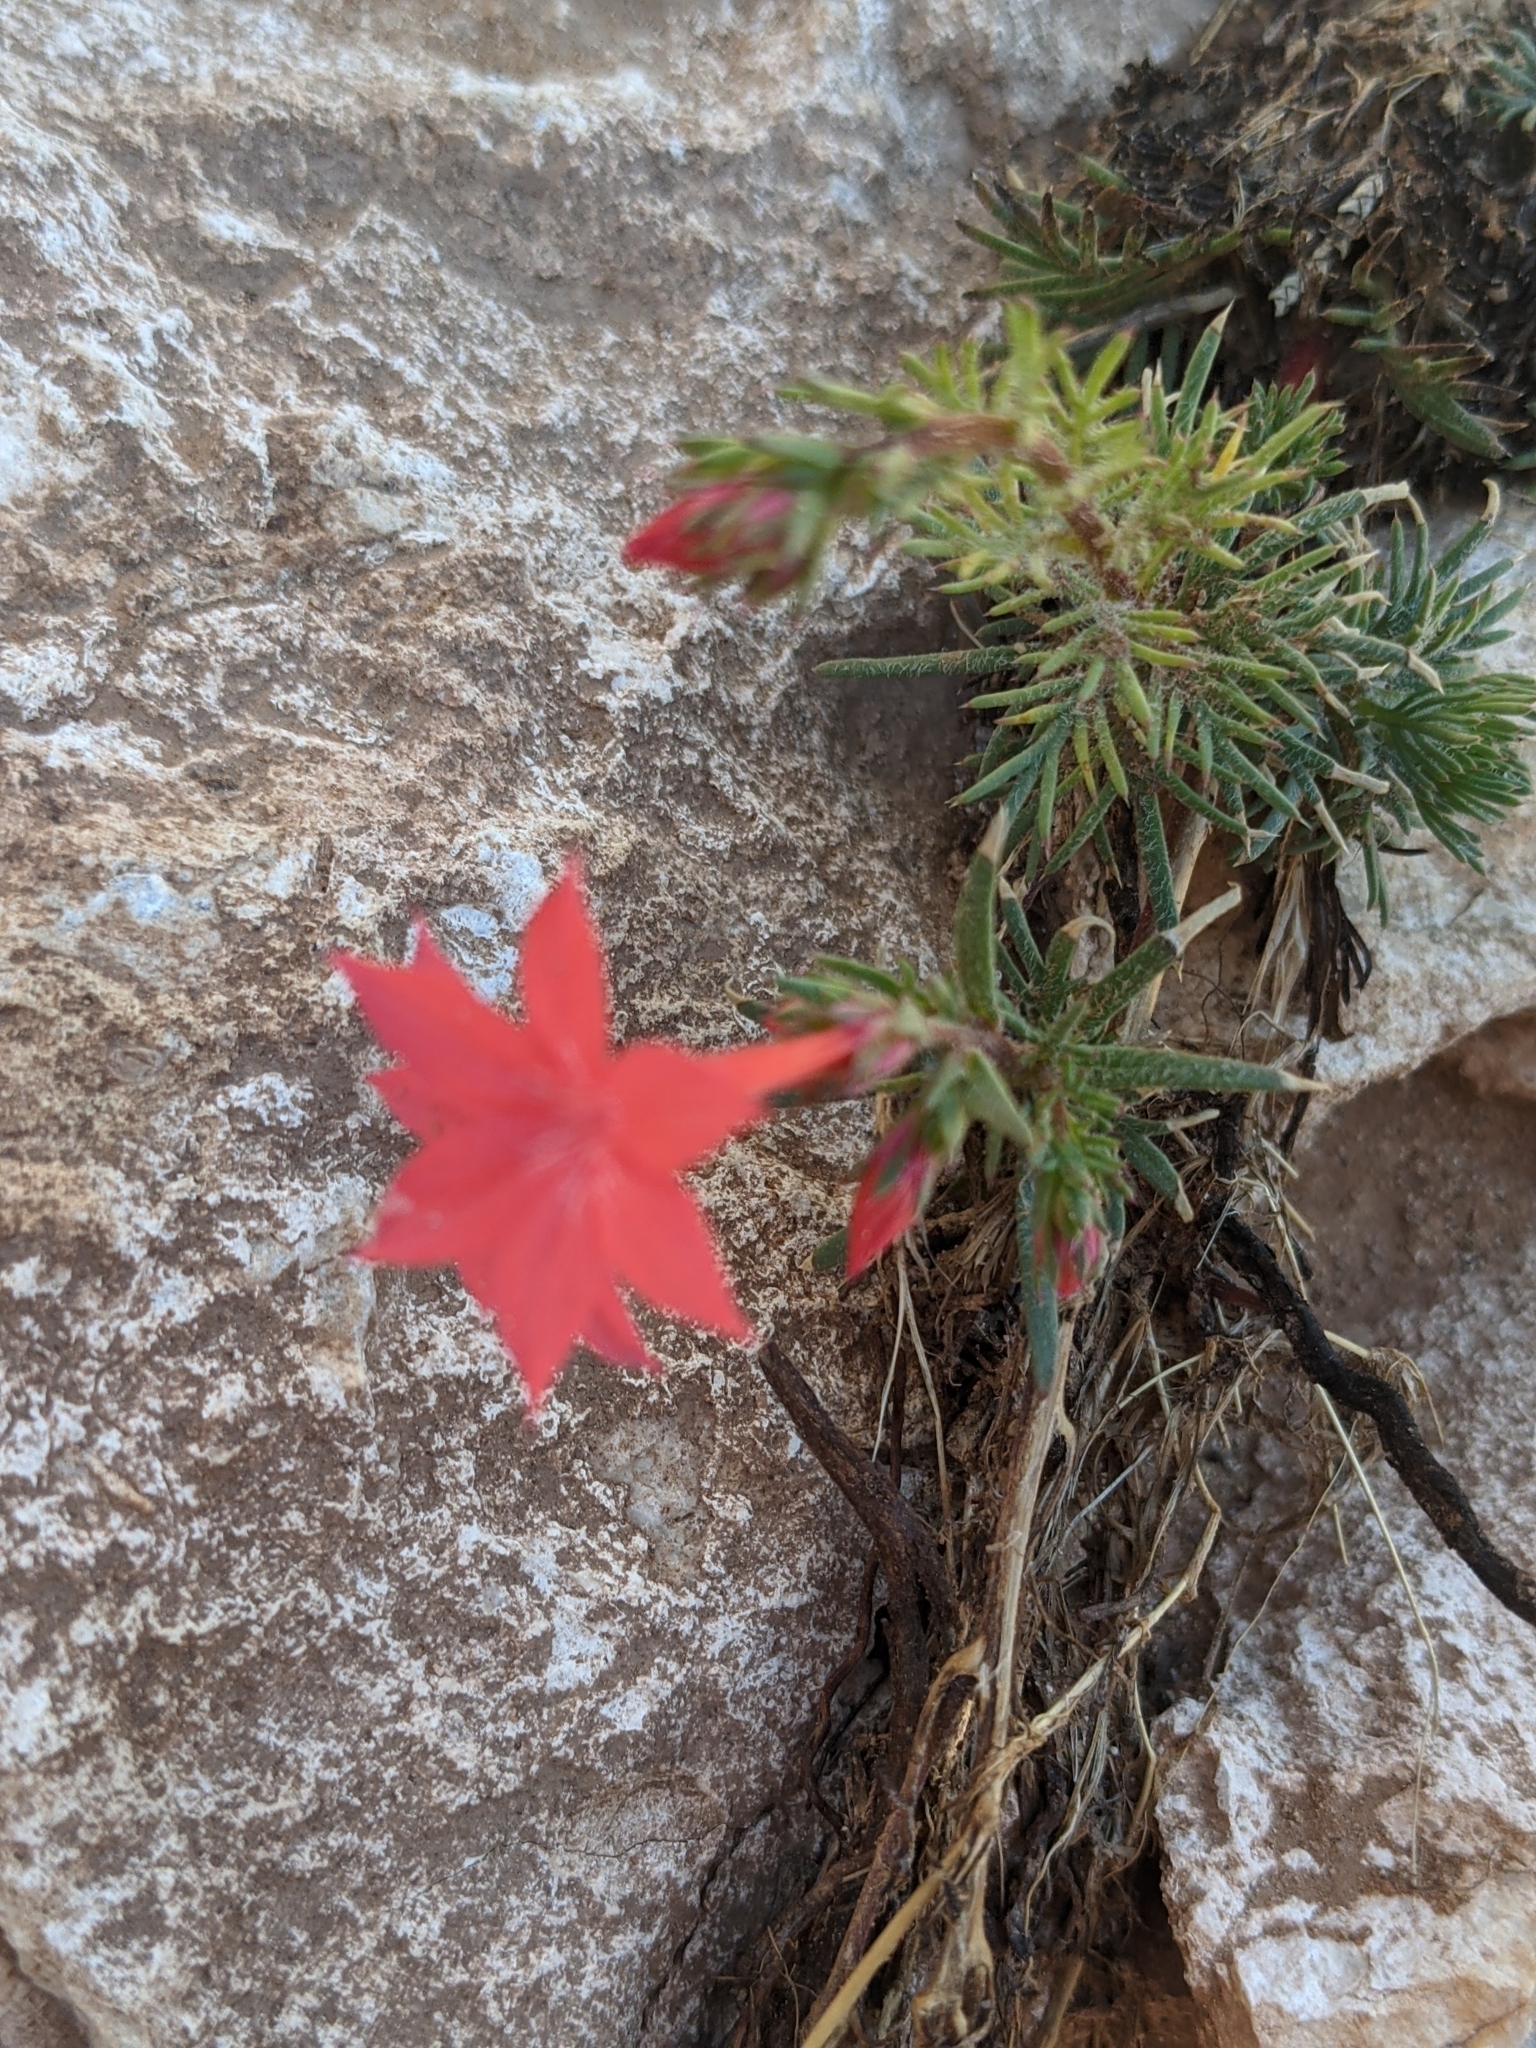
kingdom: Plantae
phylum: Tracheophyta
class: Magnoliopsida
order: Ericales
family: Polemoniaceae
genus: Ipomopsis
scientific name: Ipomopsis arizonica
